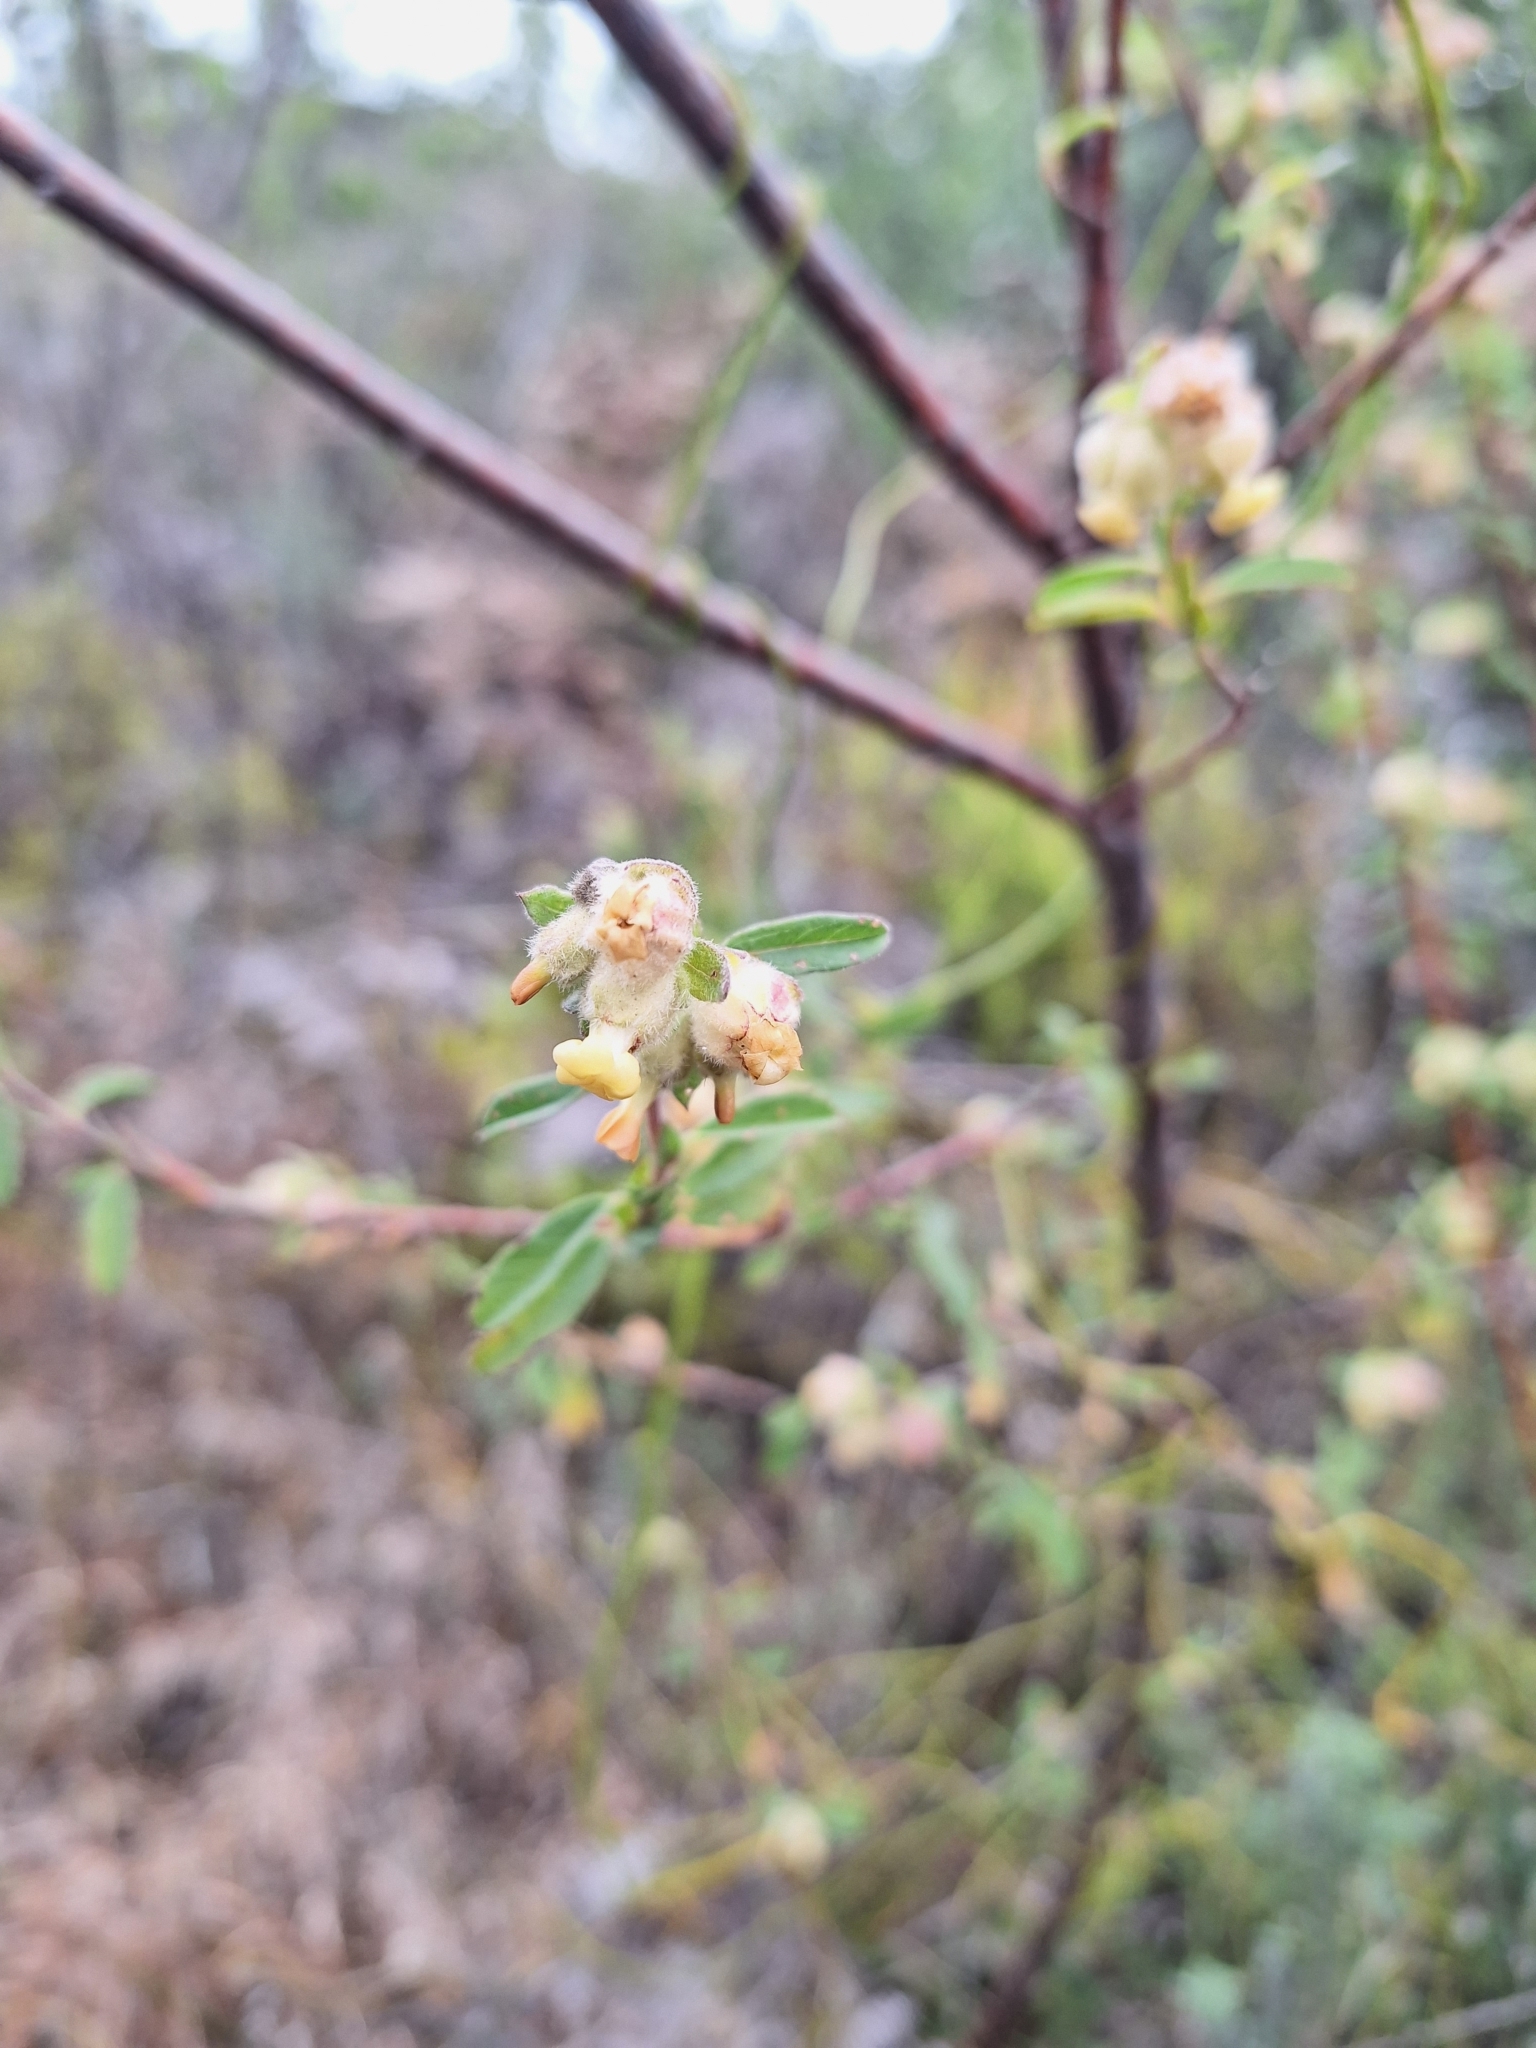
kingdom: Plantae
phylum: Tracheophyta
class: Magnoliopsida
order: Malvales
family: Malvaceae
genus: Hermannia
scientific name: Hermannia hyssopifolia
